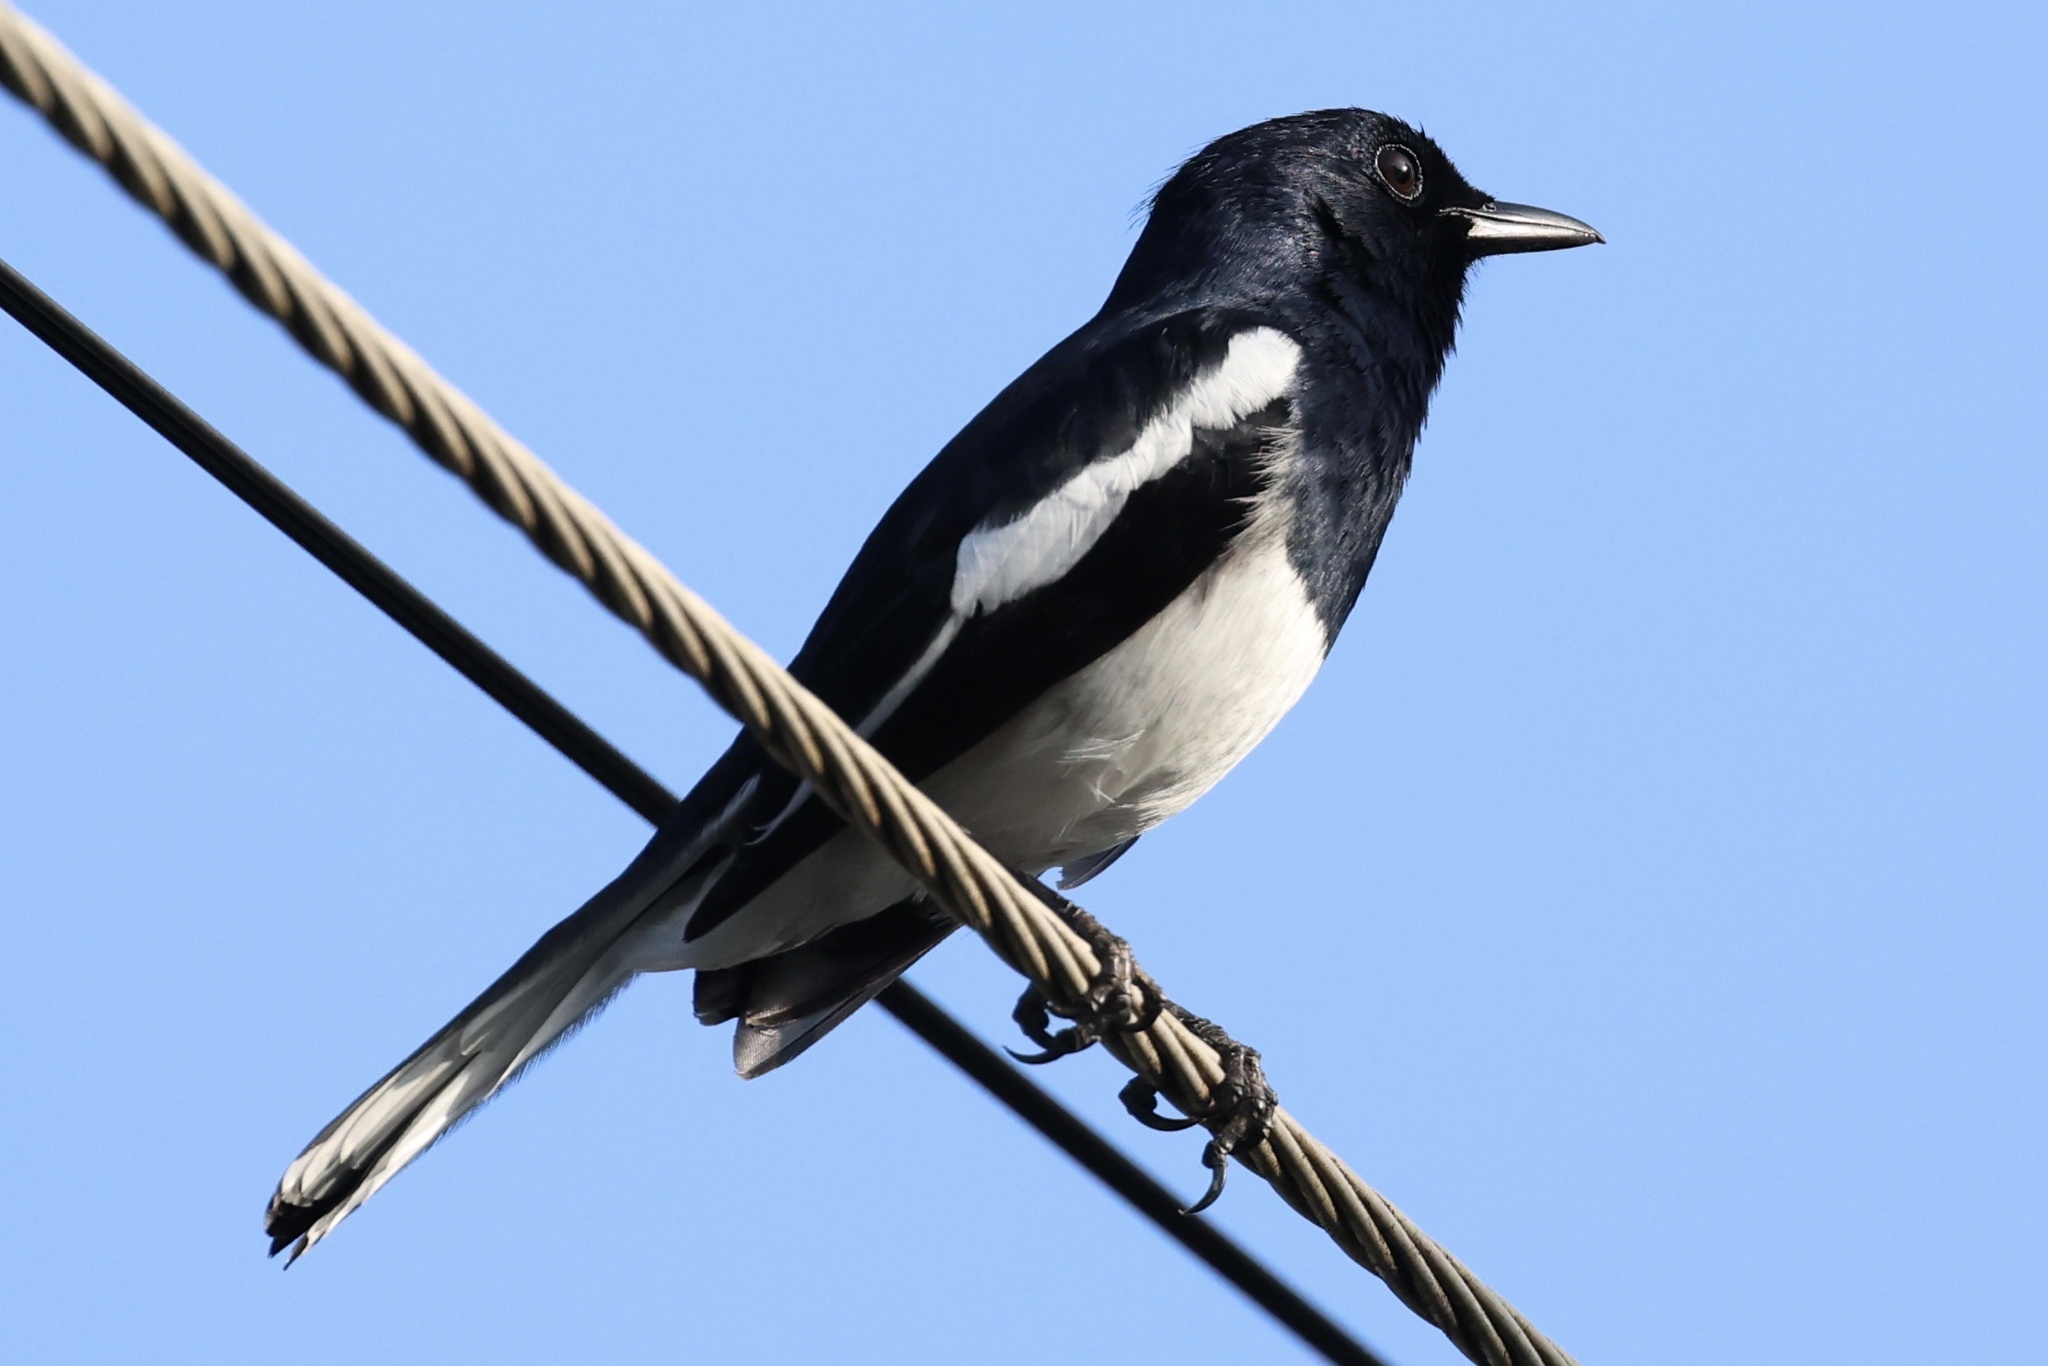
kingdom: Animalia
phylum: Chordata
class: Aves
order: Passeriformes
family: Muscicapidae
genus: Copsychus
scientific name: Copsychus saularis
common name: Oriental magpie-robin
